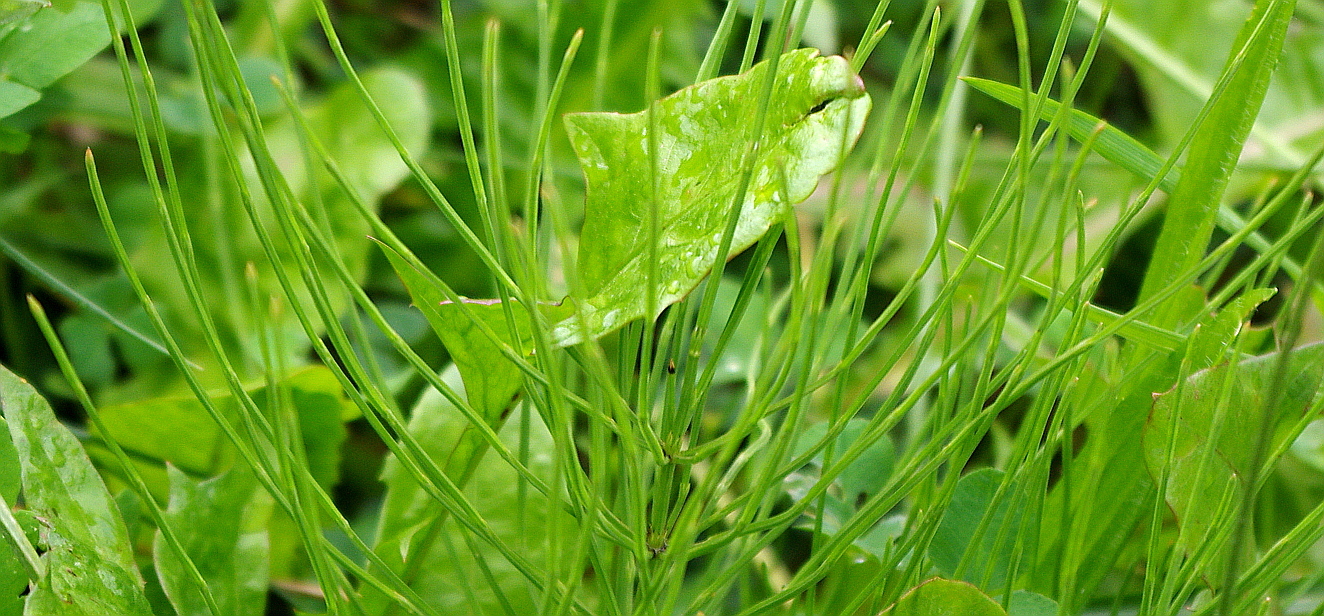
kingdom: Plantae
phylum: Tracheophyta
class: Polypodiopsida
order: Equisetales
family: Equisetaceae
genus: Equisetum
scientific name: Equisetum arvense
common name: Field horsetail
